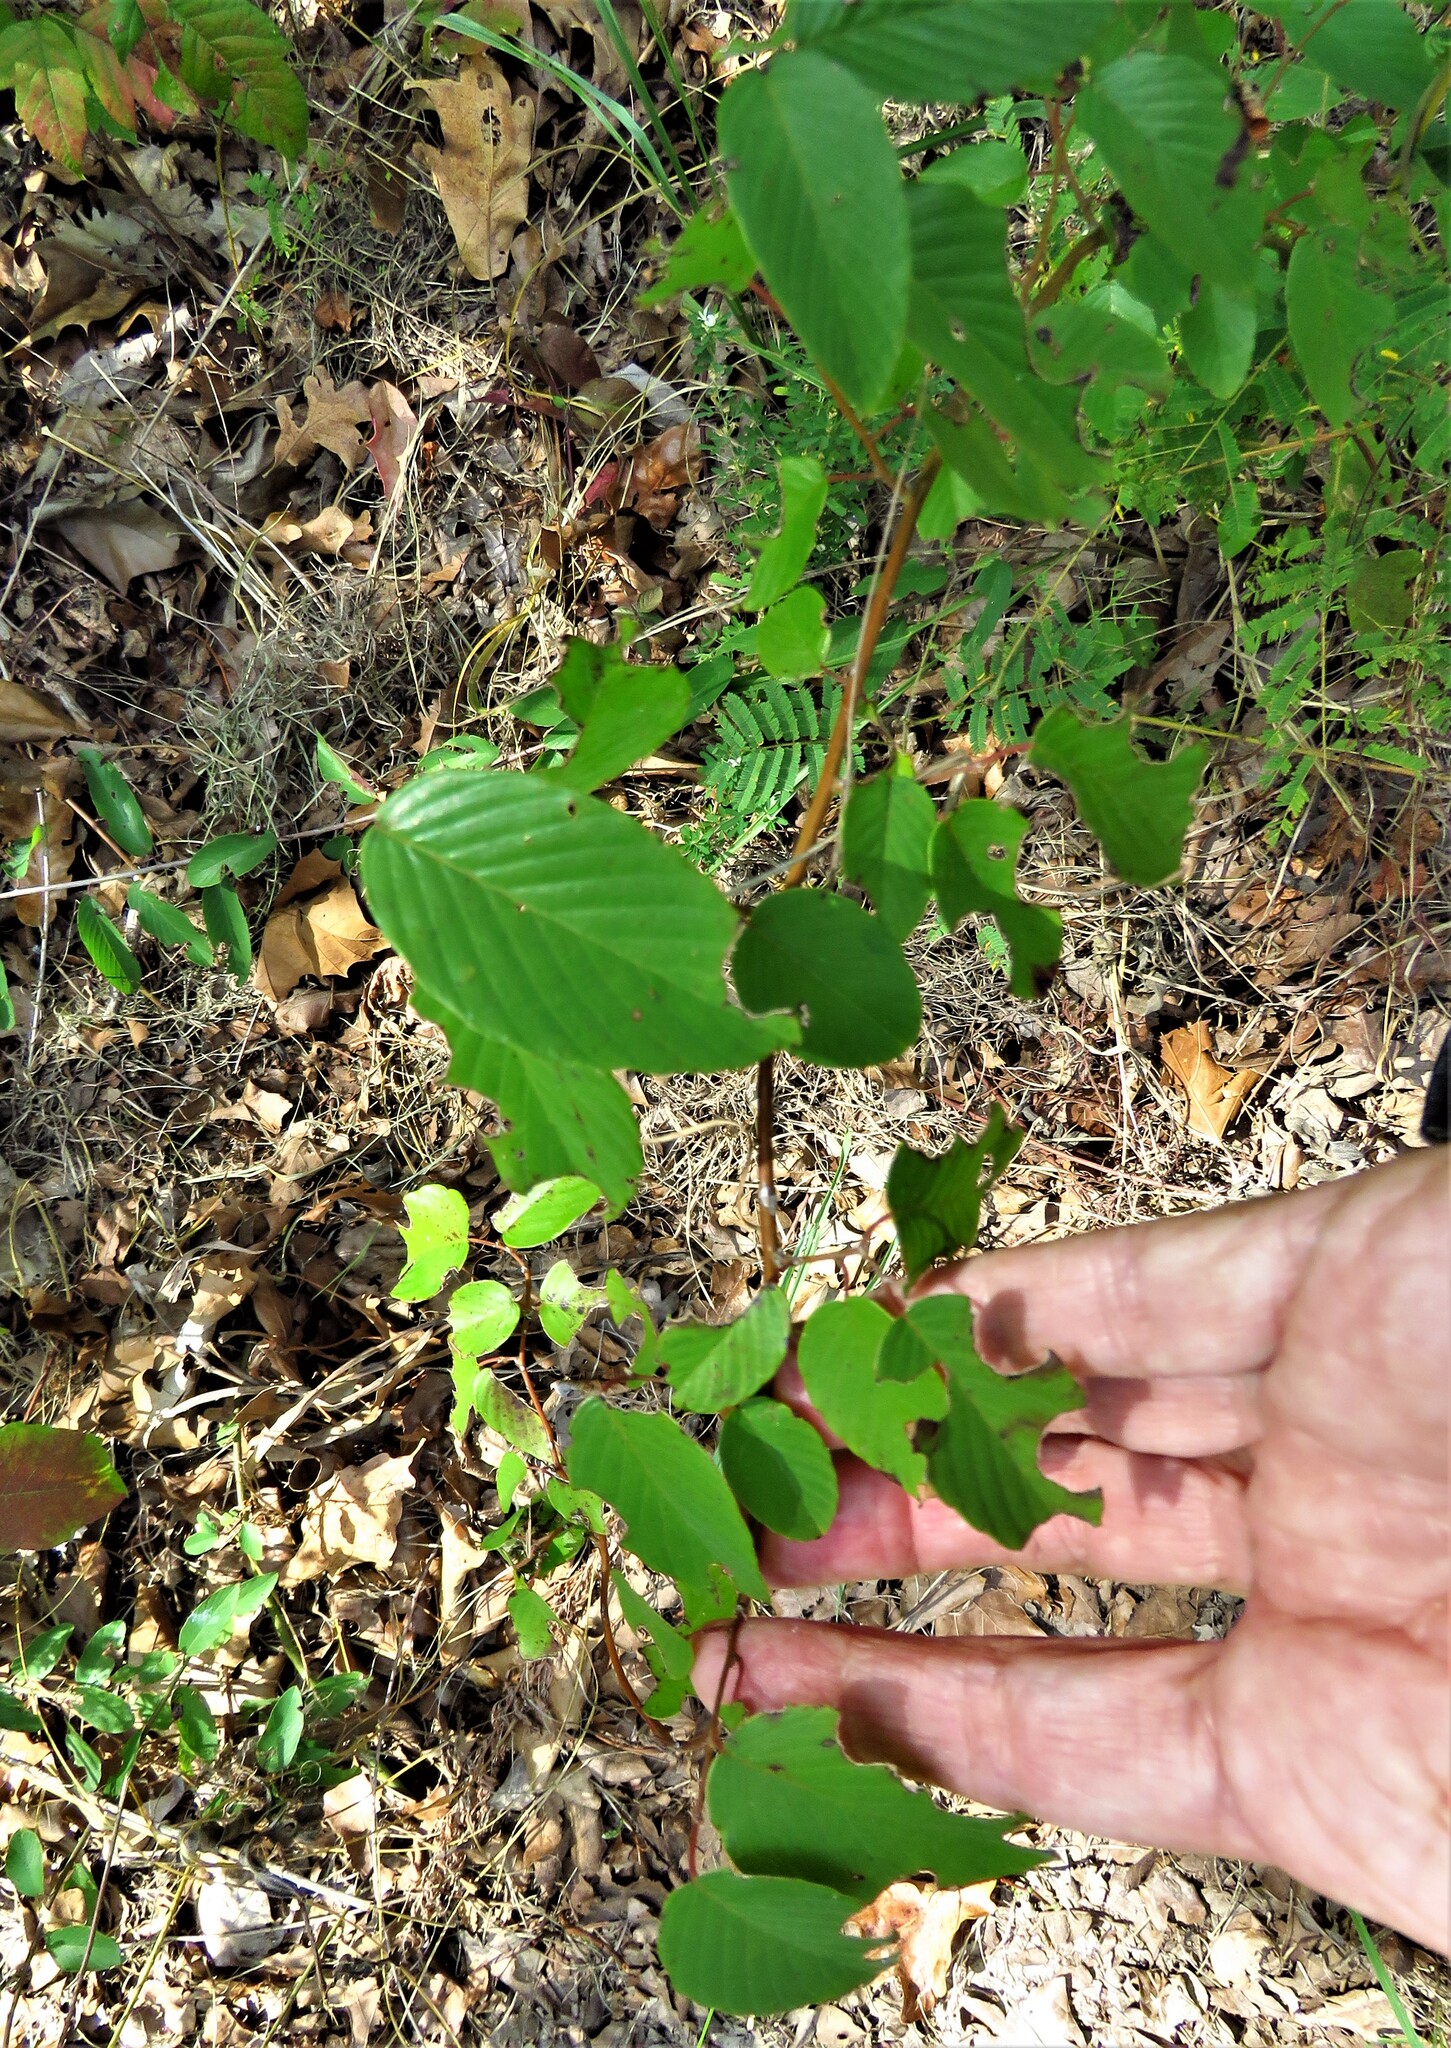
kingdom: Plantae
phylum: Tracheophyta
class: Magnoliopsida
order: Rosales
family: Rhamnaceae
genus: Berchemia
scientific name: Berchemia scandens
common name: Supplejack
